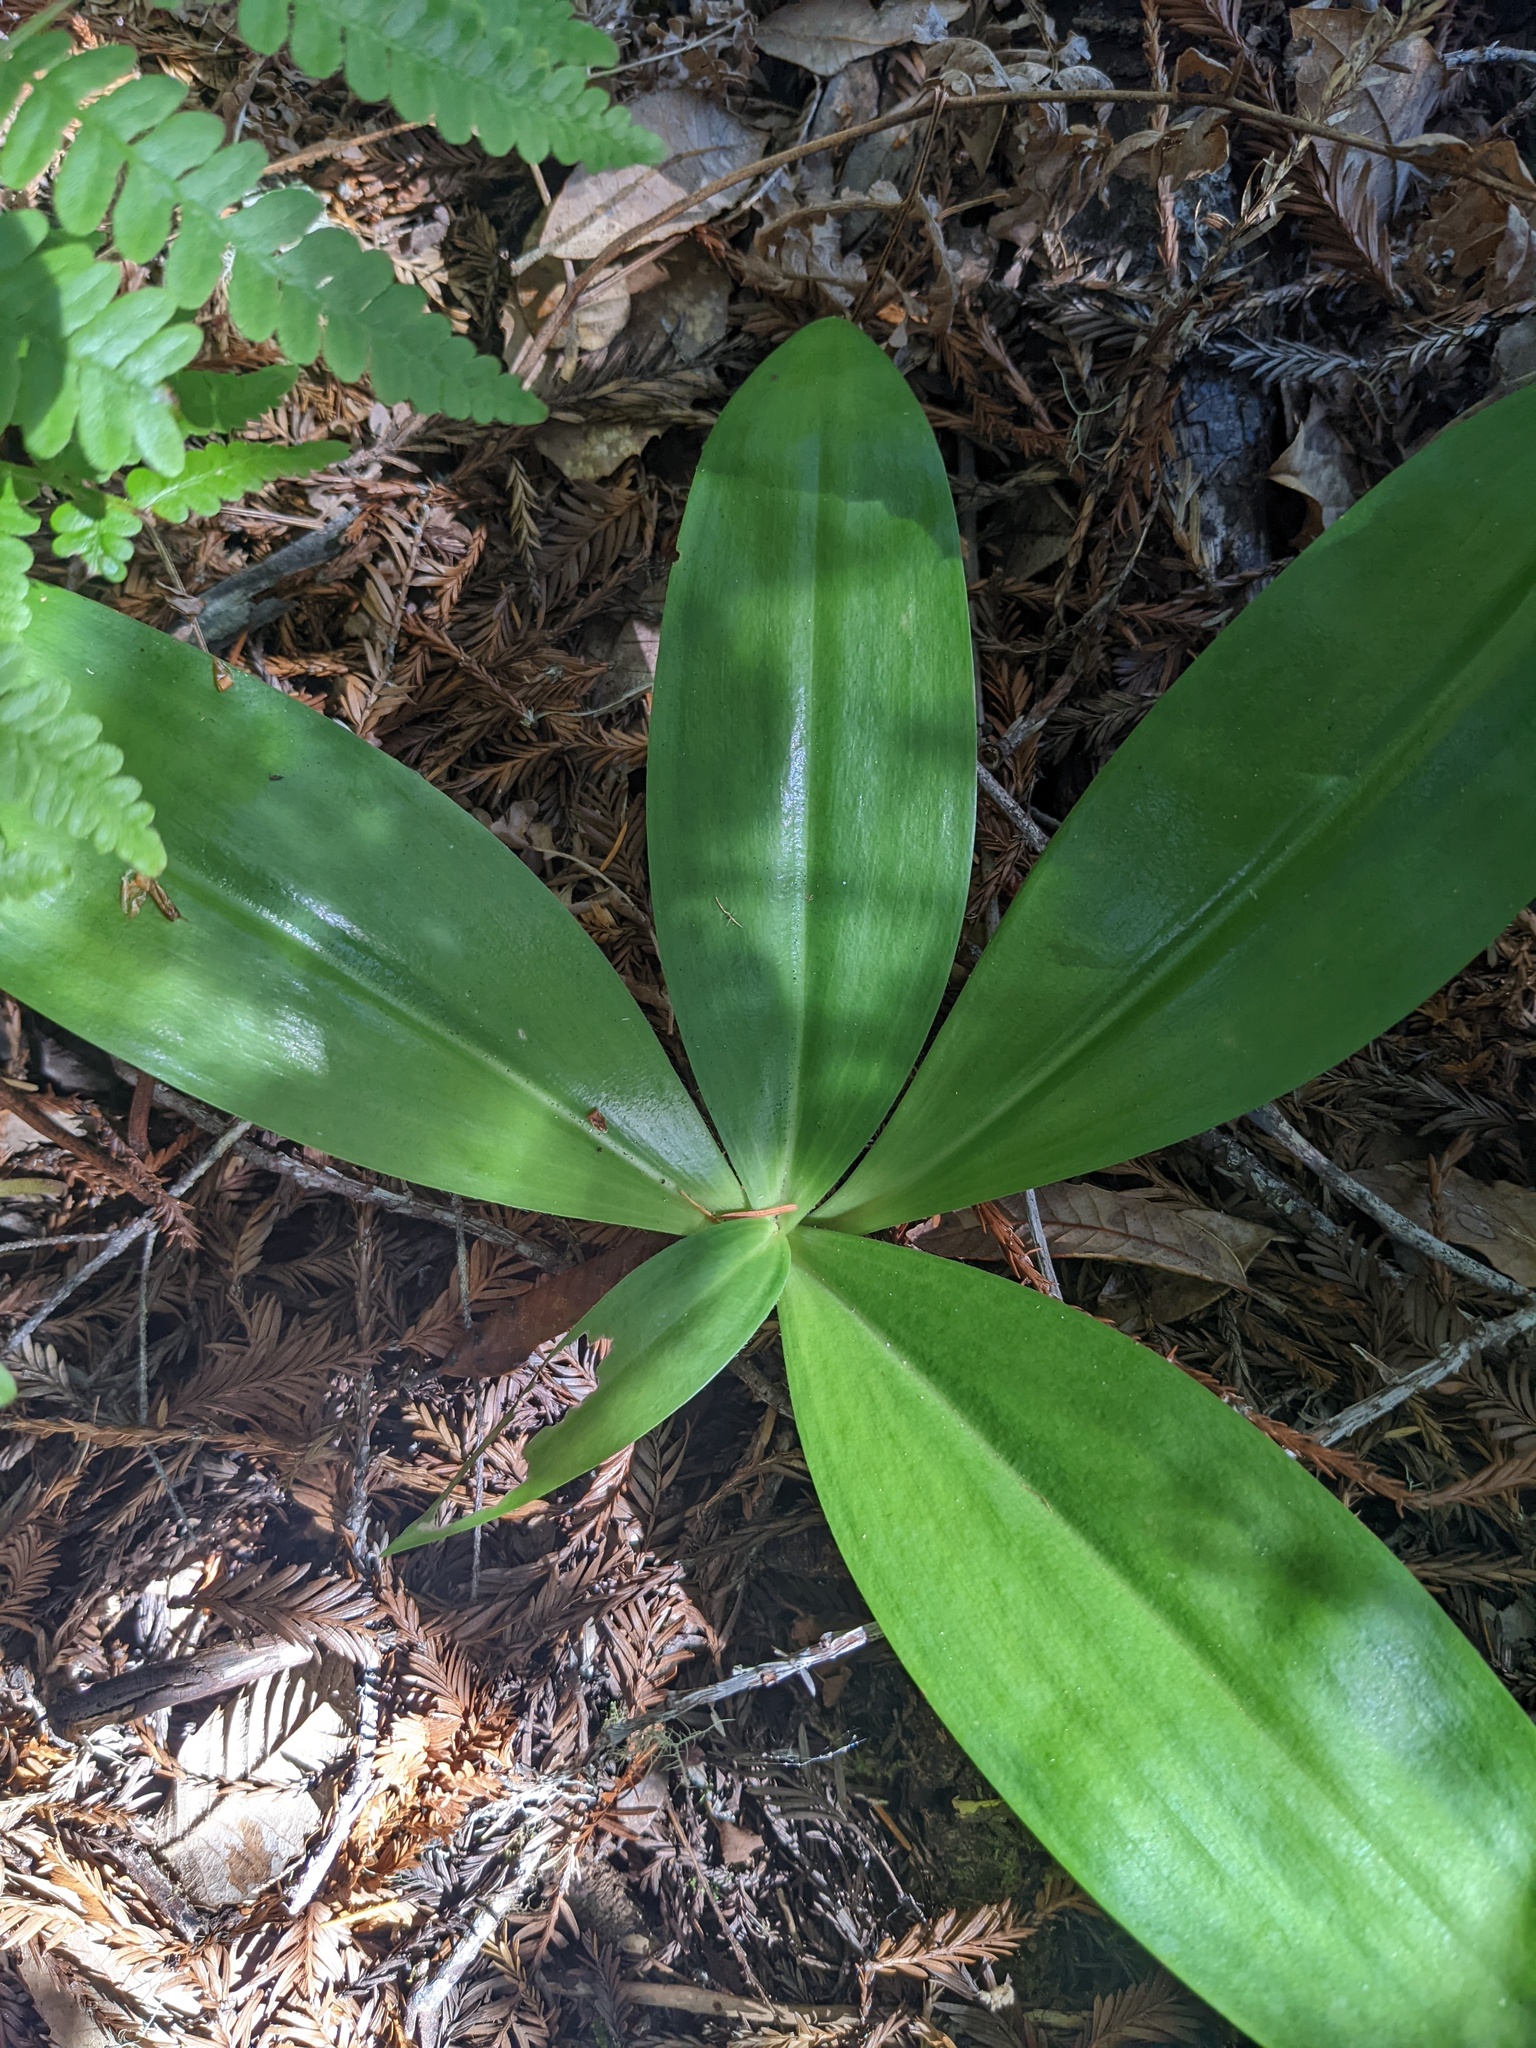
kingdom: Plantae
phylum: Tracheophyta
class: Liliopsida
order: Liliales
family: Liliaceae
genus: Clintonia
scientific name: Clintonia andrewsiana
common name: Red clintonia
